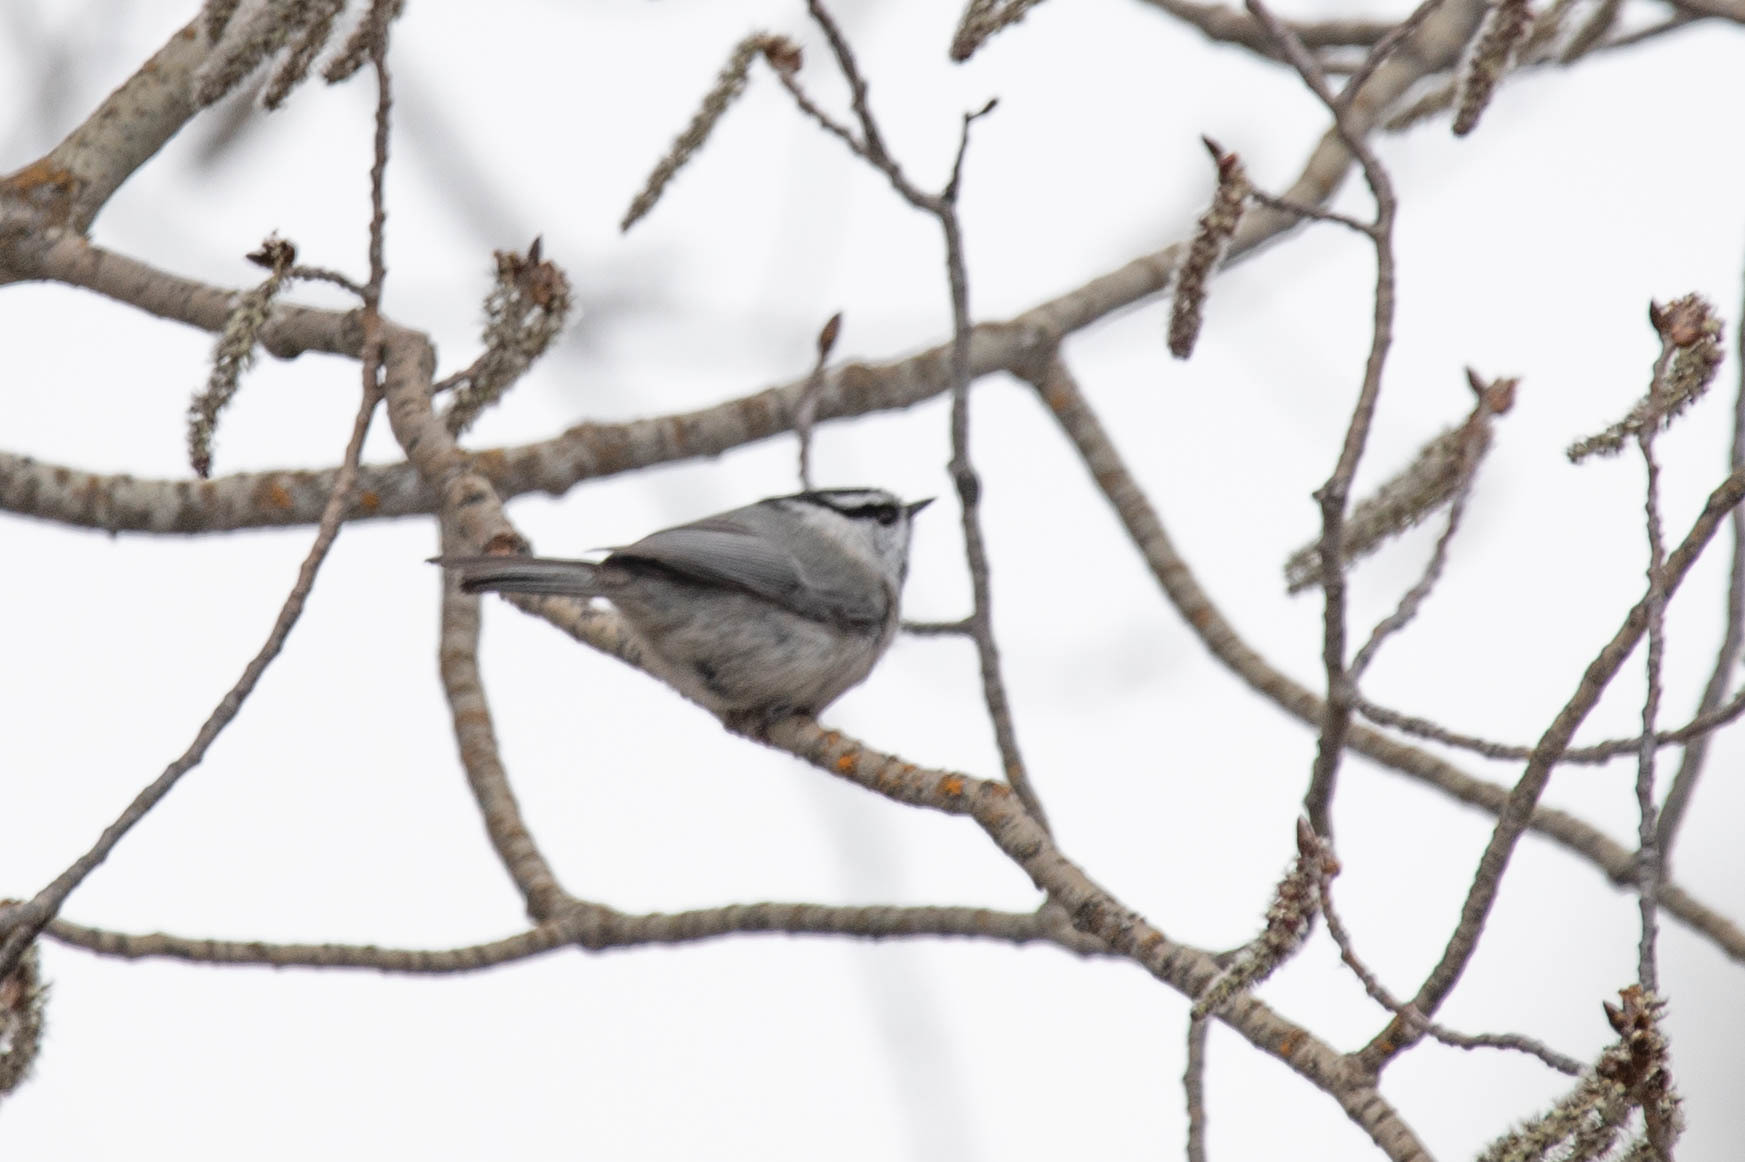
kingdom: Animalia
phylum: Chordata
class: Aves
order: Passeriformes
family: Paridae
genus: Poecile
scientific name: Poecile gambeli
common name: Mountain chickadee
